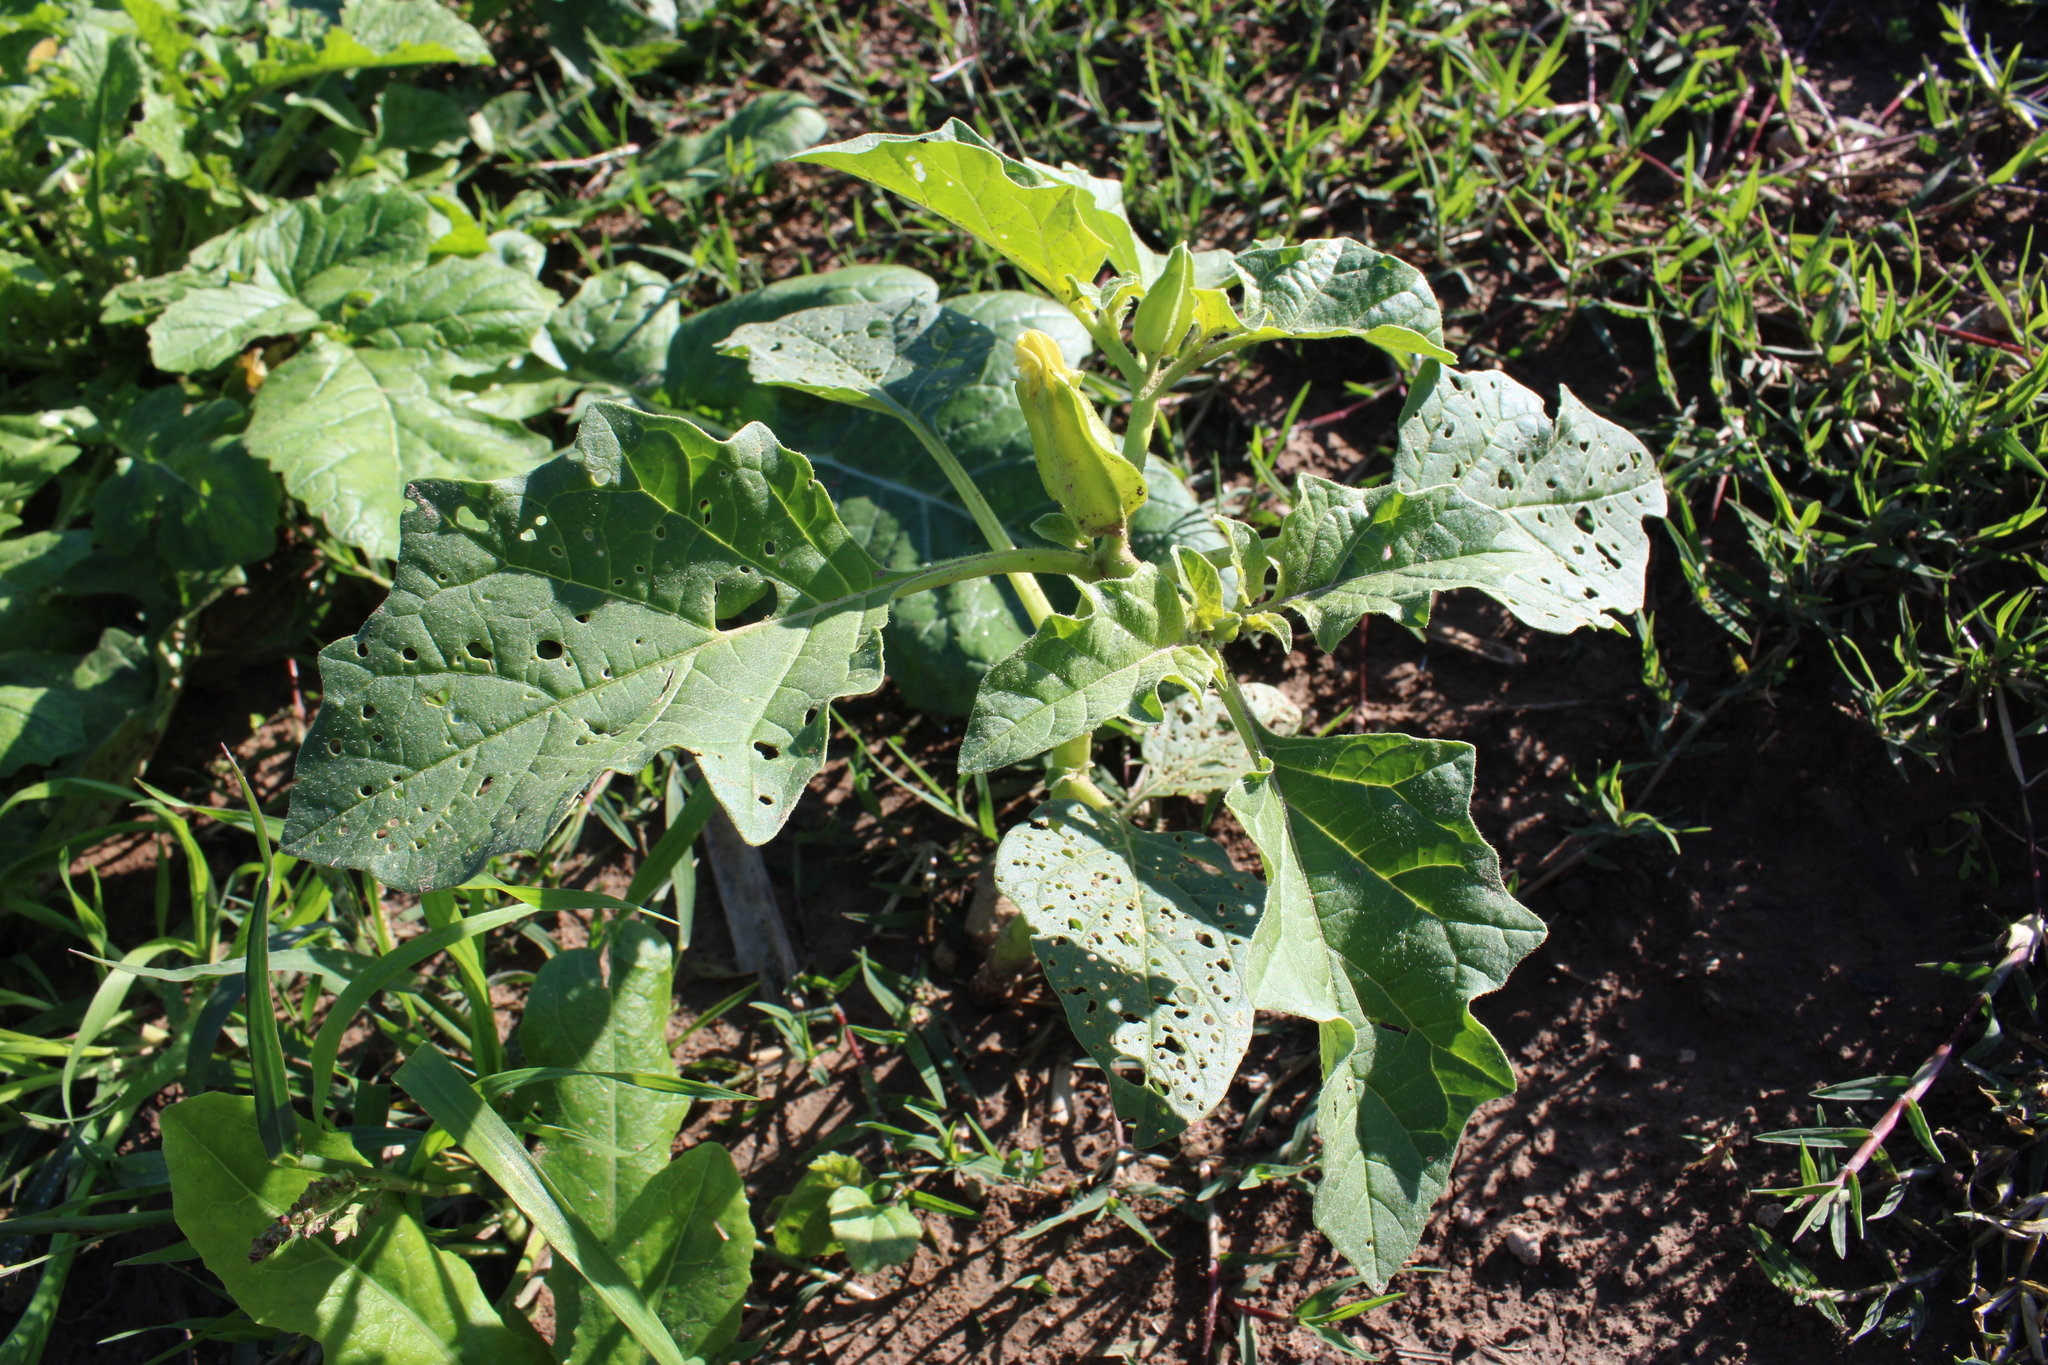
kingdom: Plantae
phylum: Tracheophyta
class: Magnoliopsida
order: Solanales
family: Solanaceae
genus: Datura
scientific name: Datura ferox
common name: Angel's-trumpets
